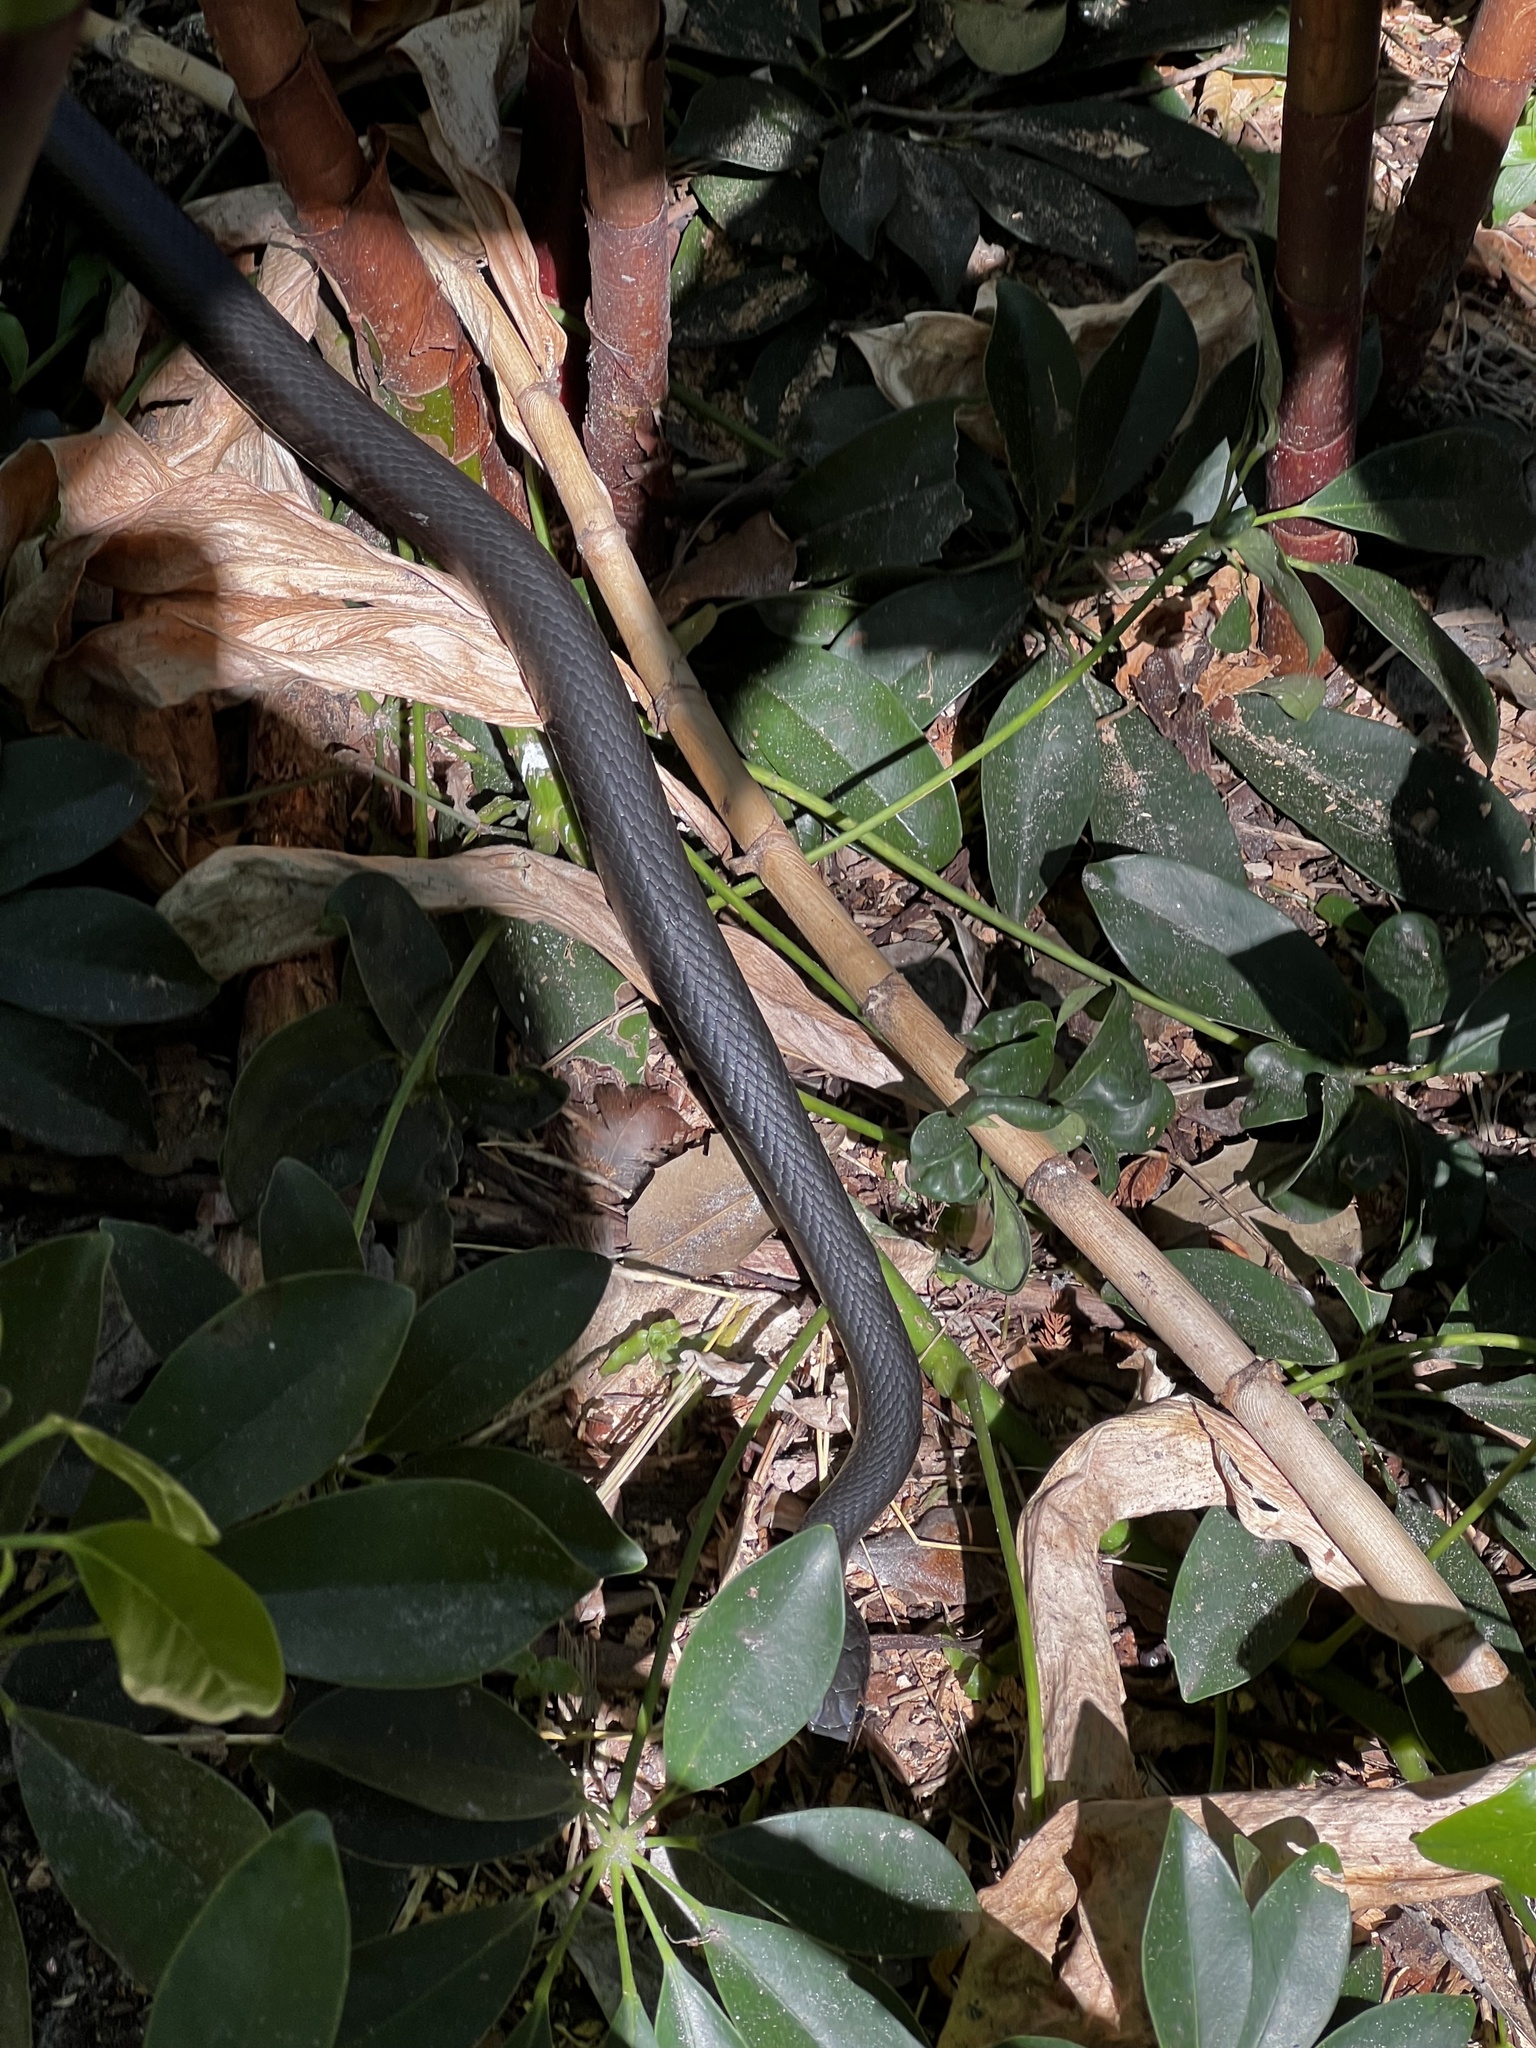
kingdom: Animalia
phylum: Chordata
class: Squamata
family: Colubridae
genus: Coluber
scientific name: Coluber constrictor
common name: Eastern racer
